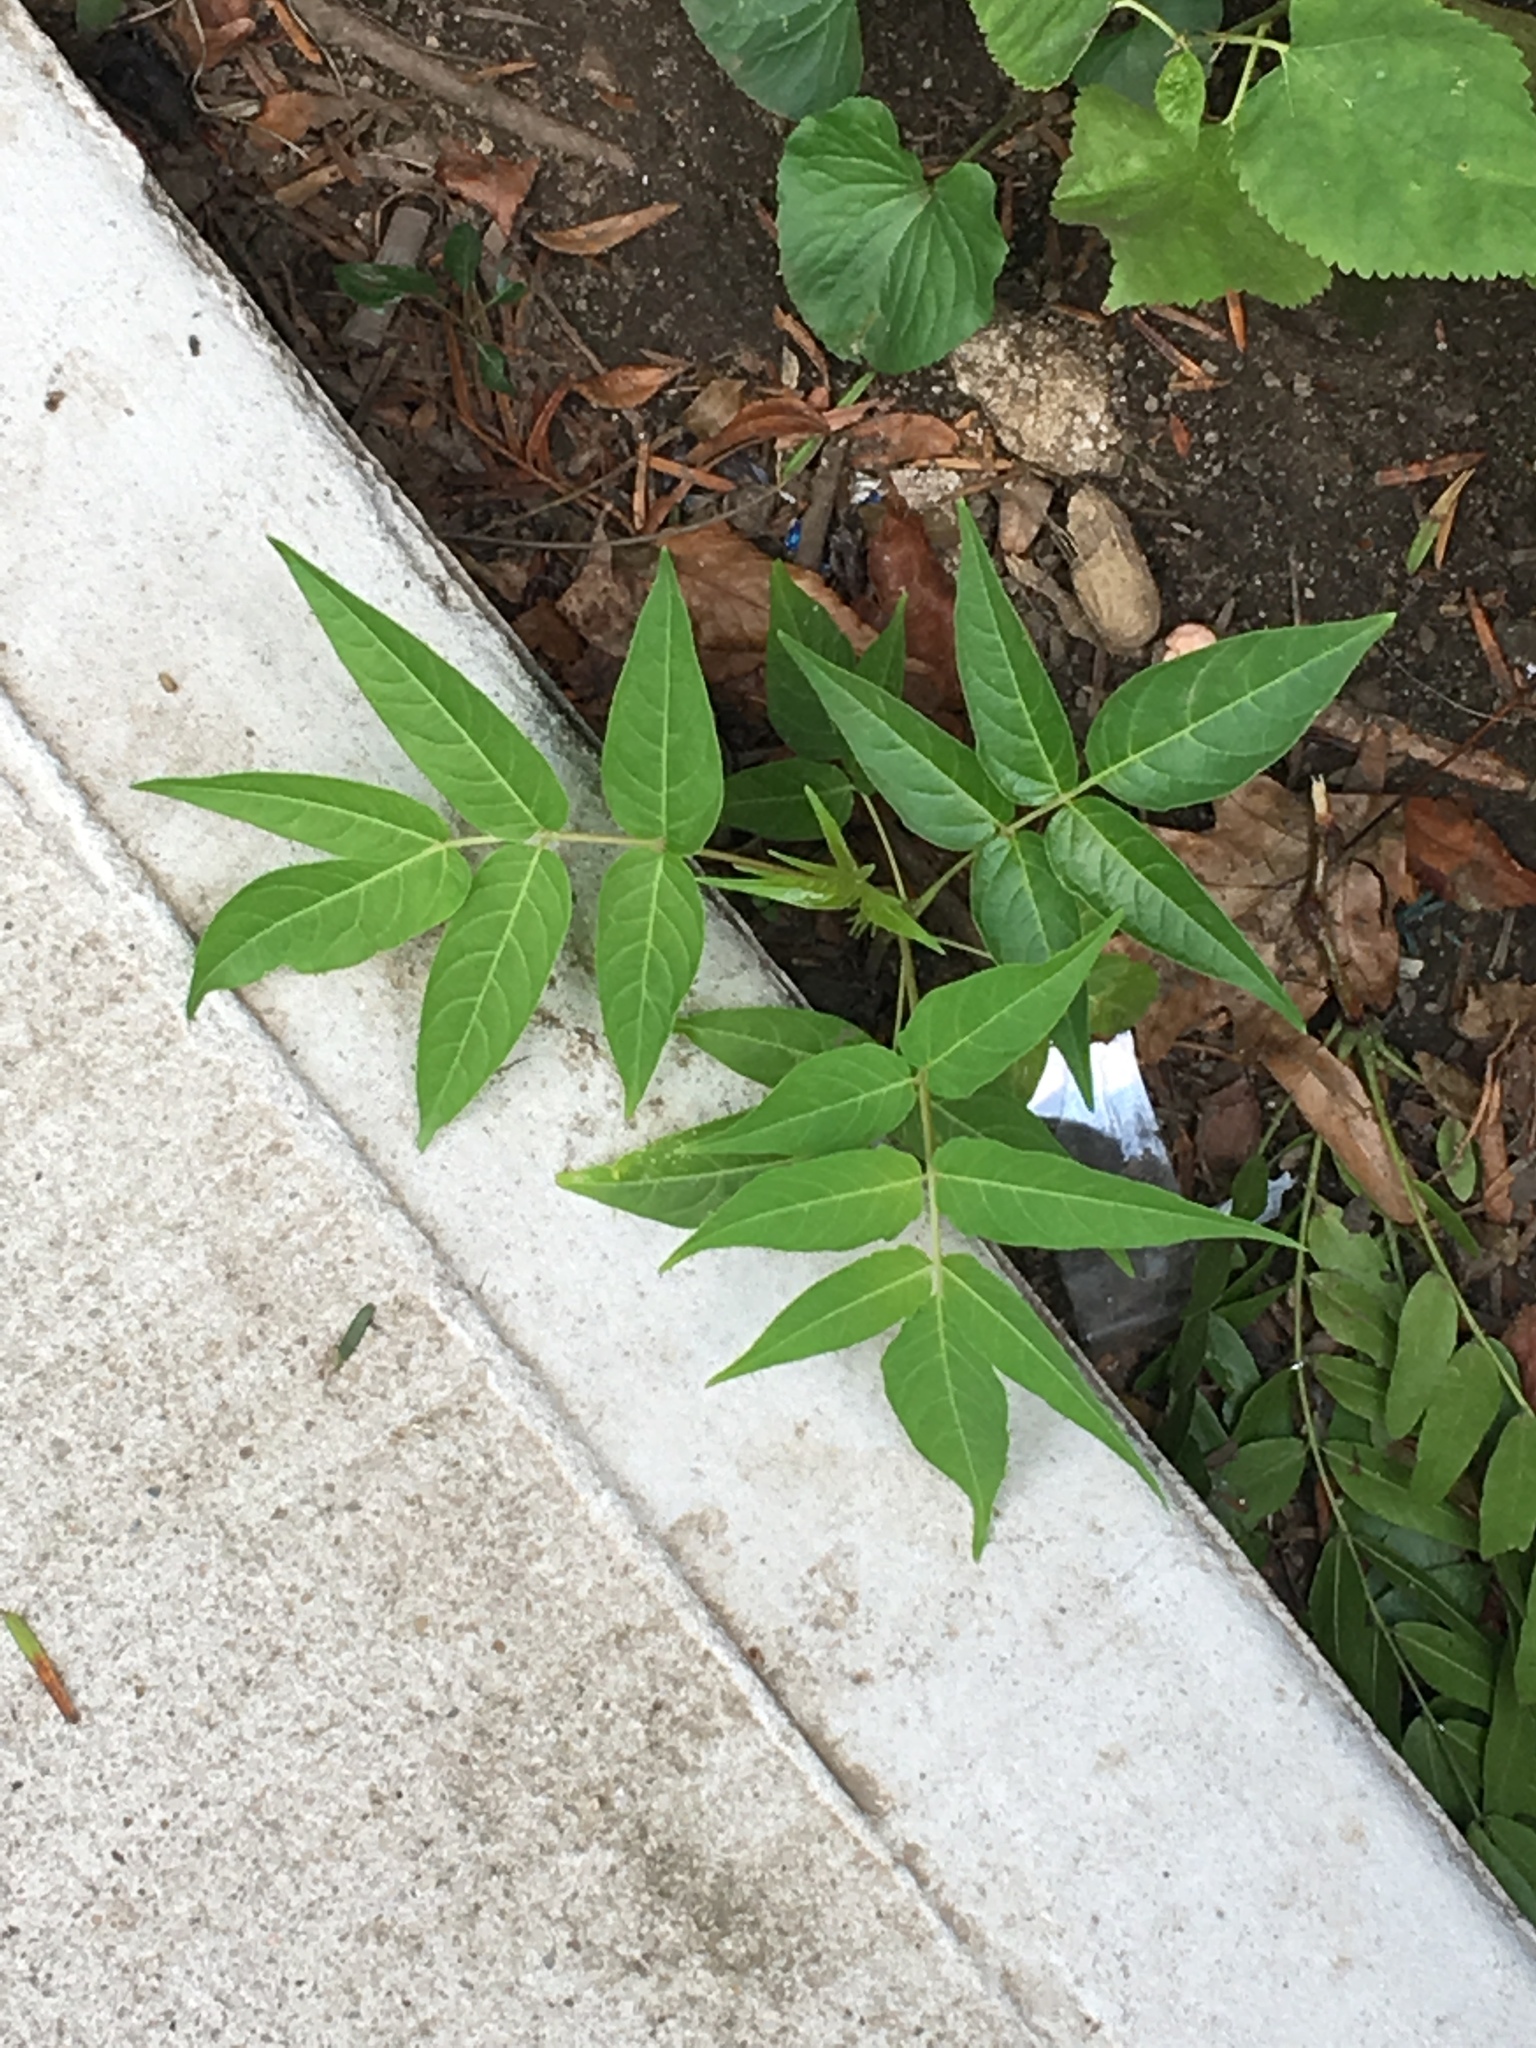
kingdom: Plantae
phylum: Tracheophyta
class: Magnoliopsida
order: Sapindales
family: Simaroubaceae
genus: Ailanthus
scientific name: Ailanthus altissima
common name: Tree-of-heaven
